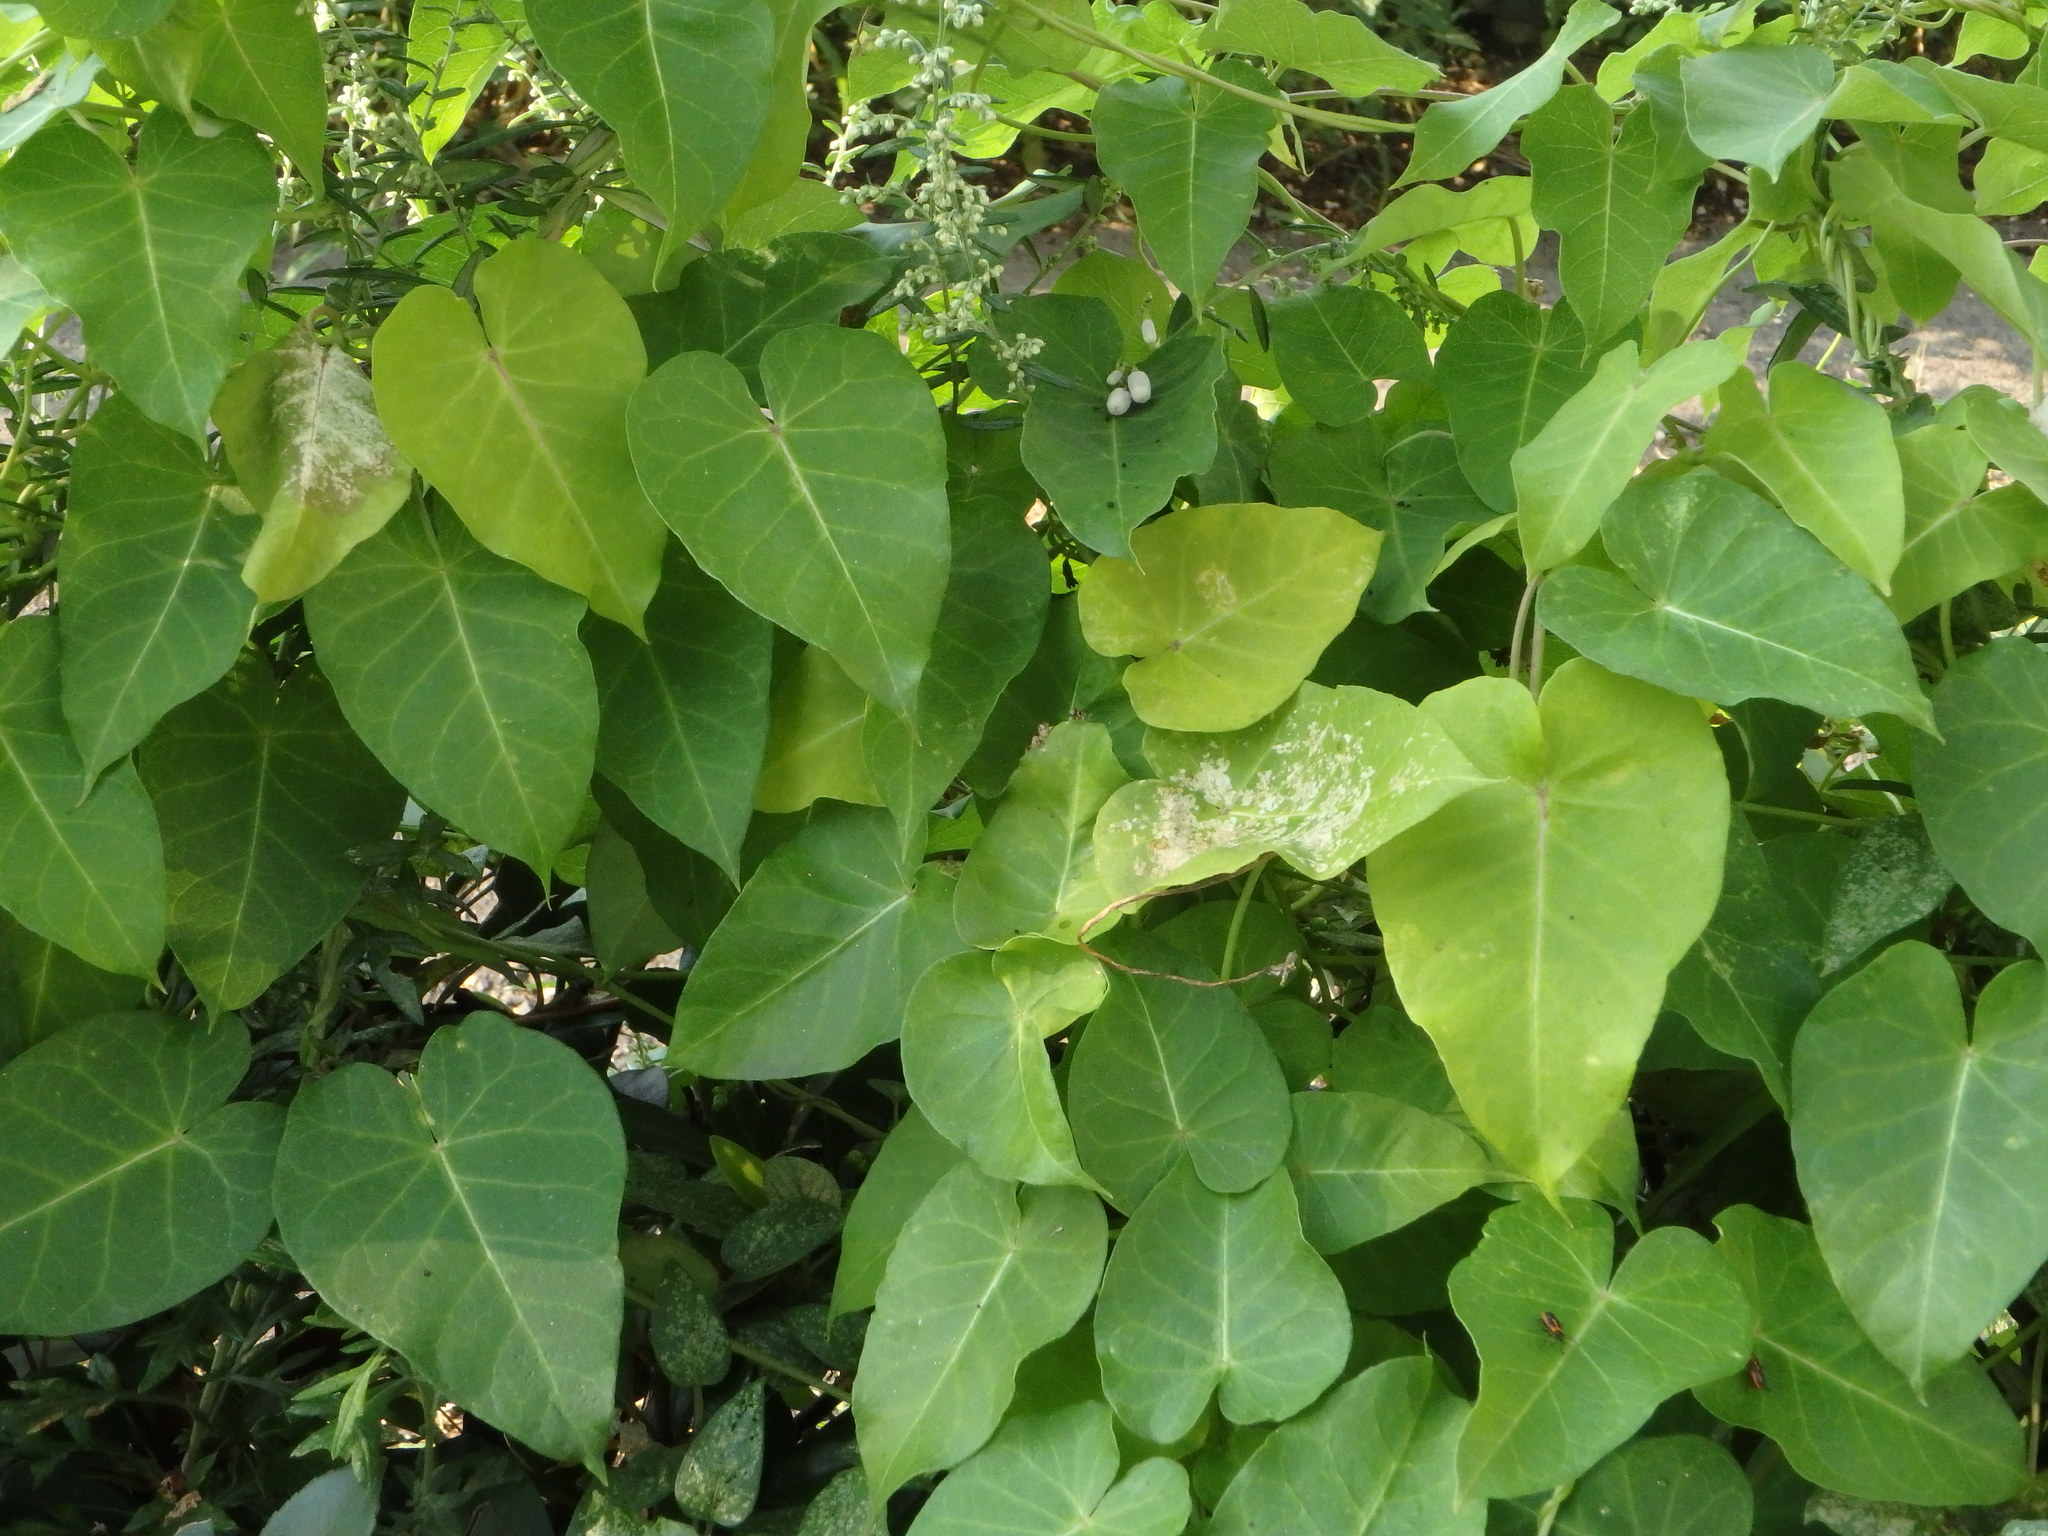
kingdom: Plantae
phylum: Tracheophyta
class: Magnoliopsida
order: Gentianales
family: Apocynaceae
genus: Cynanchum
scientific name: Cynanchum rostellatum
